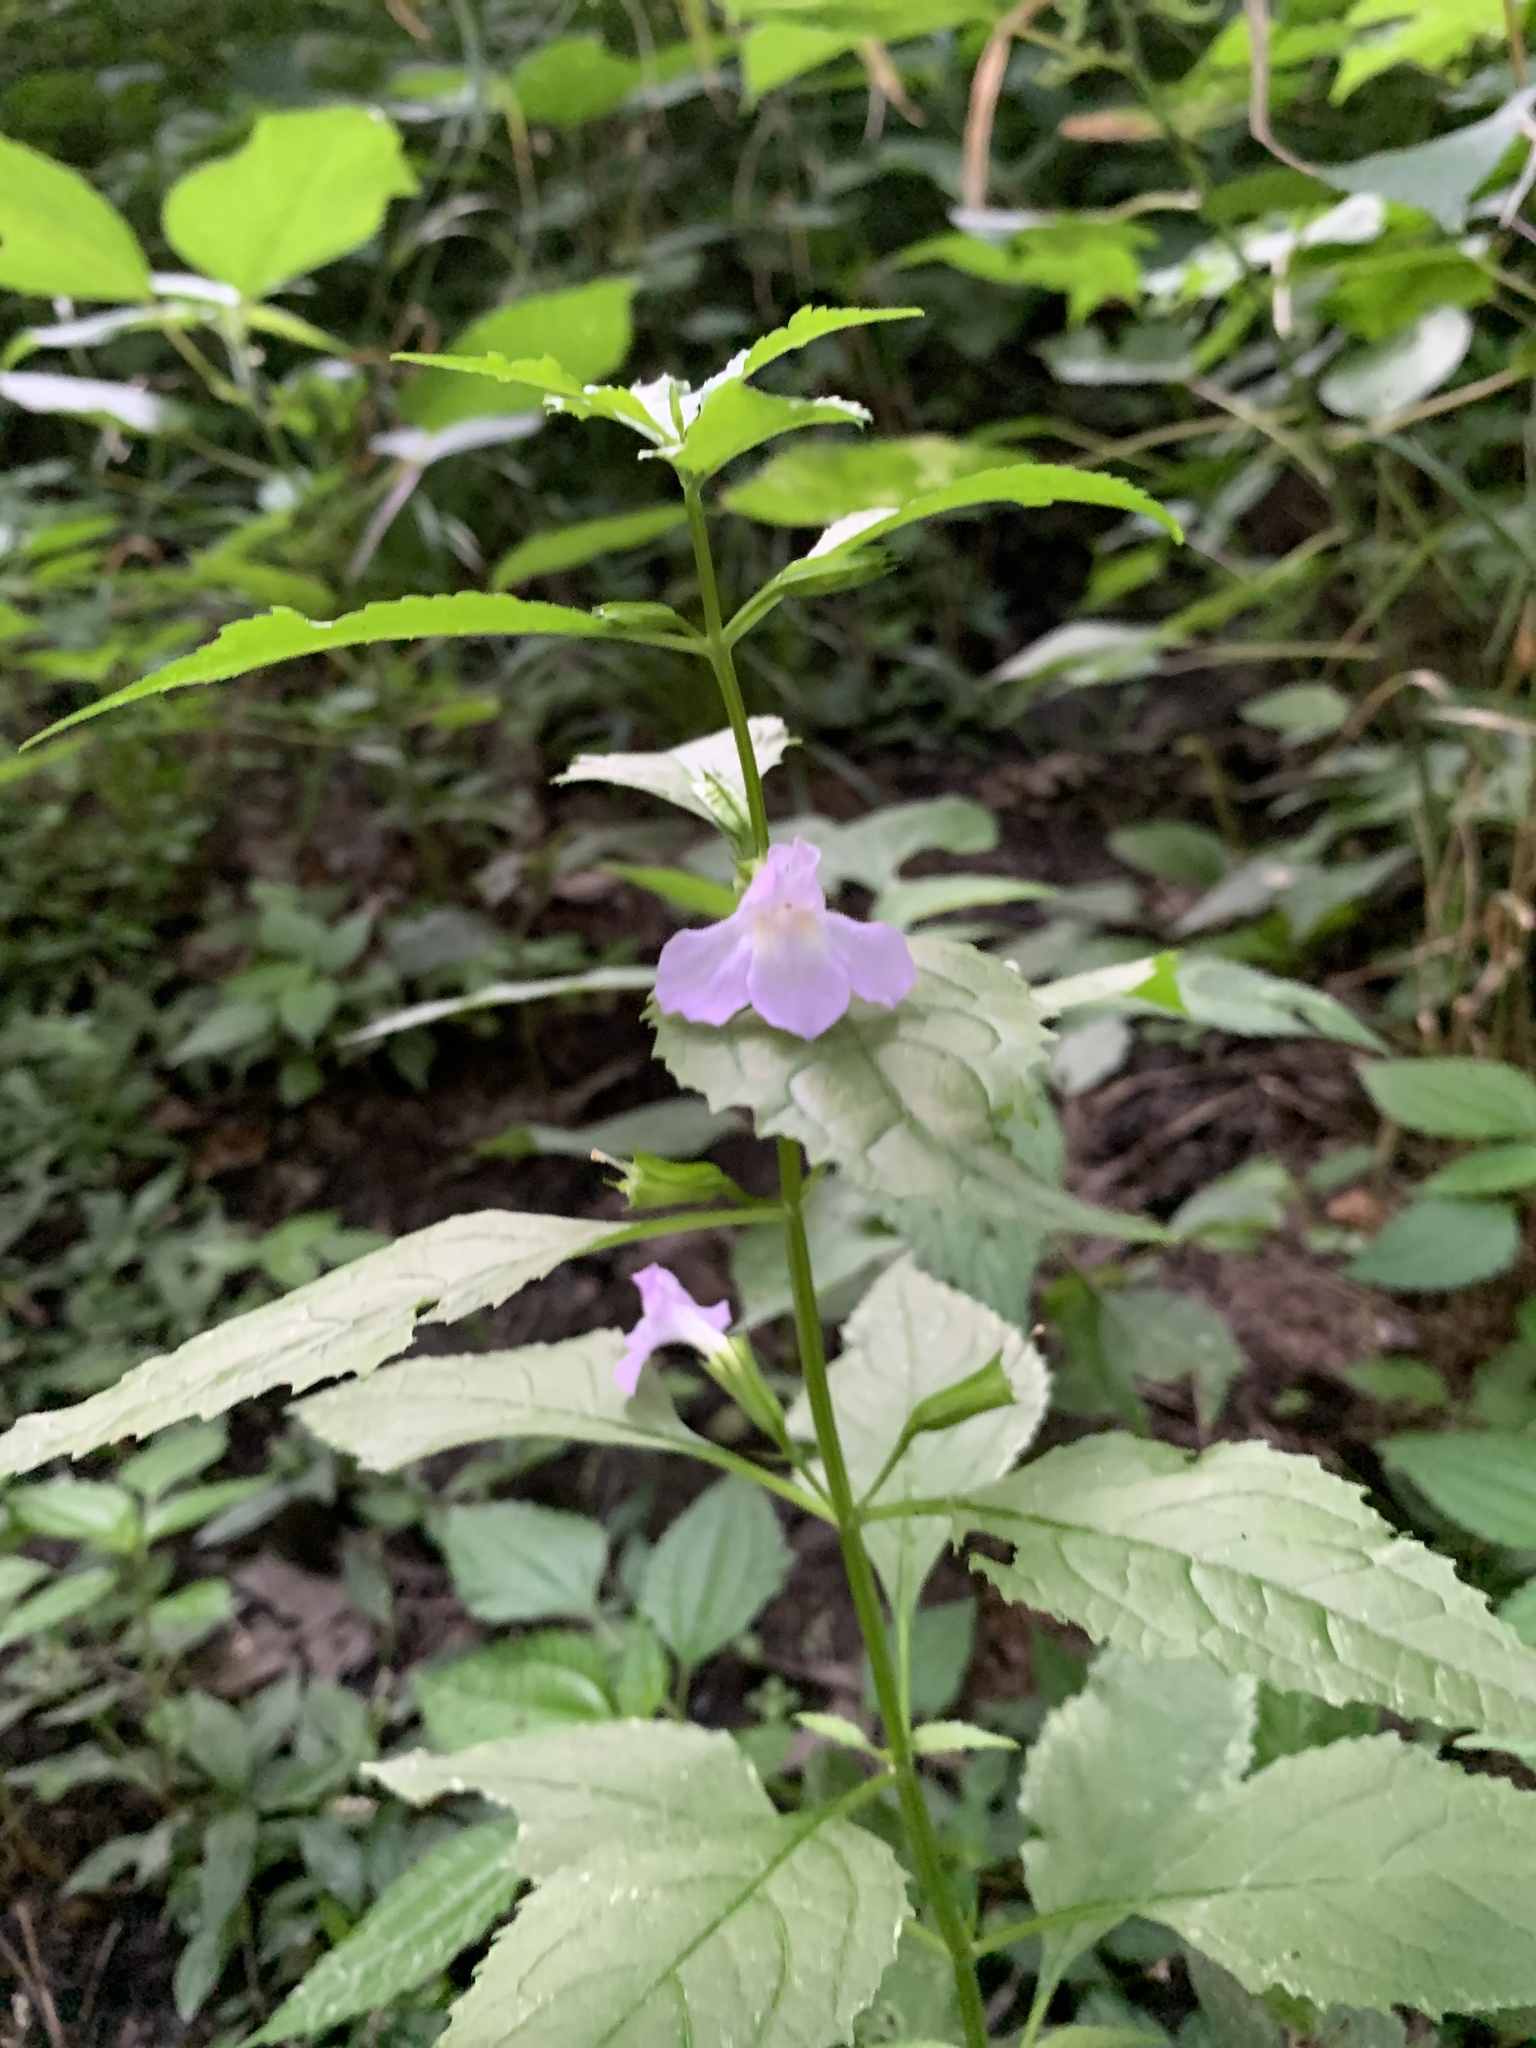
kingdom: Plantae
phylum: Tracheophyta
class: Magnoliopsida
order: Lamiales
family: Phrymaceae
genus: Mimulus
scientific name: Mimulus alatus
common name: Sharp-wing monkey-flower
